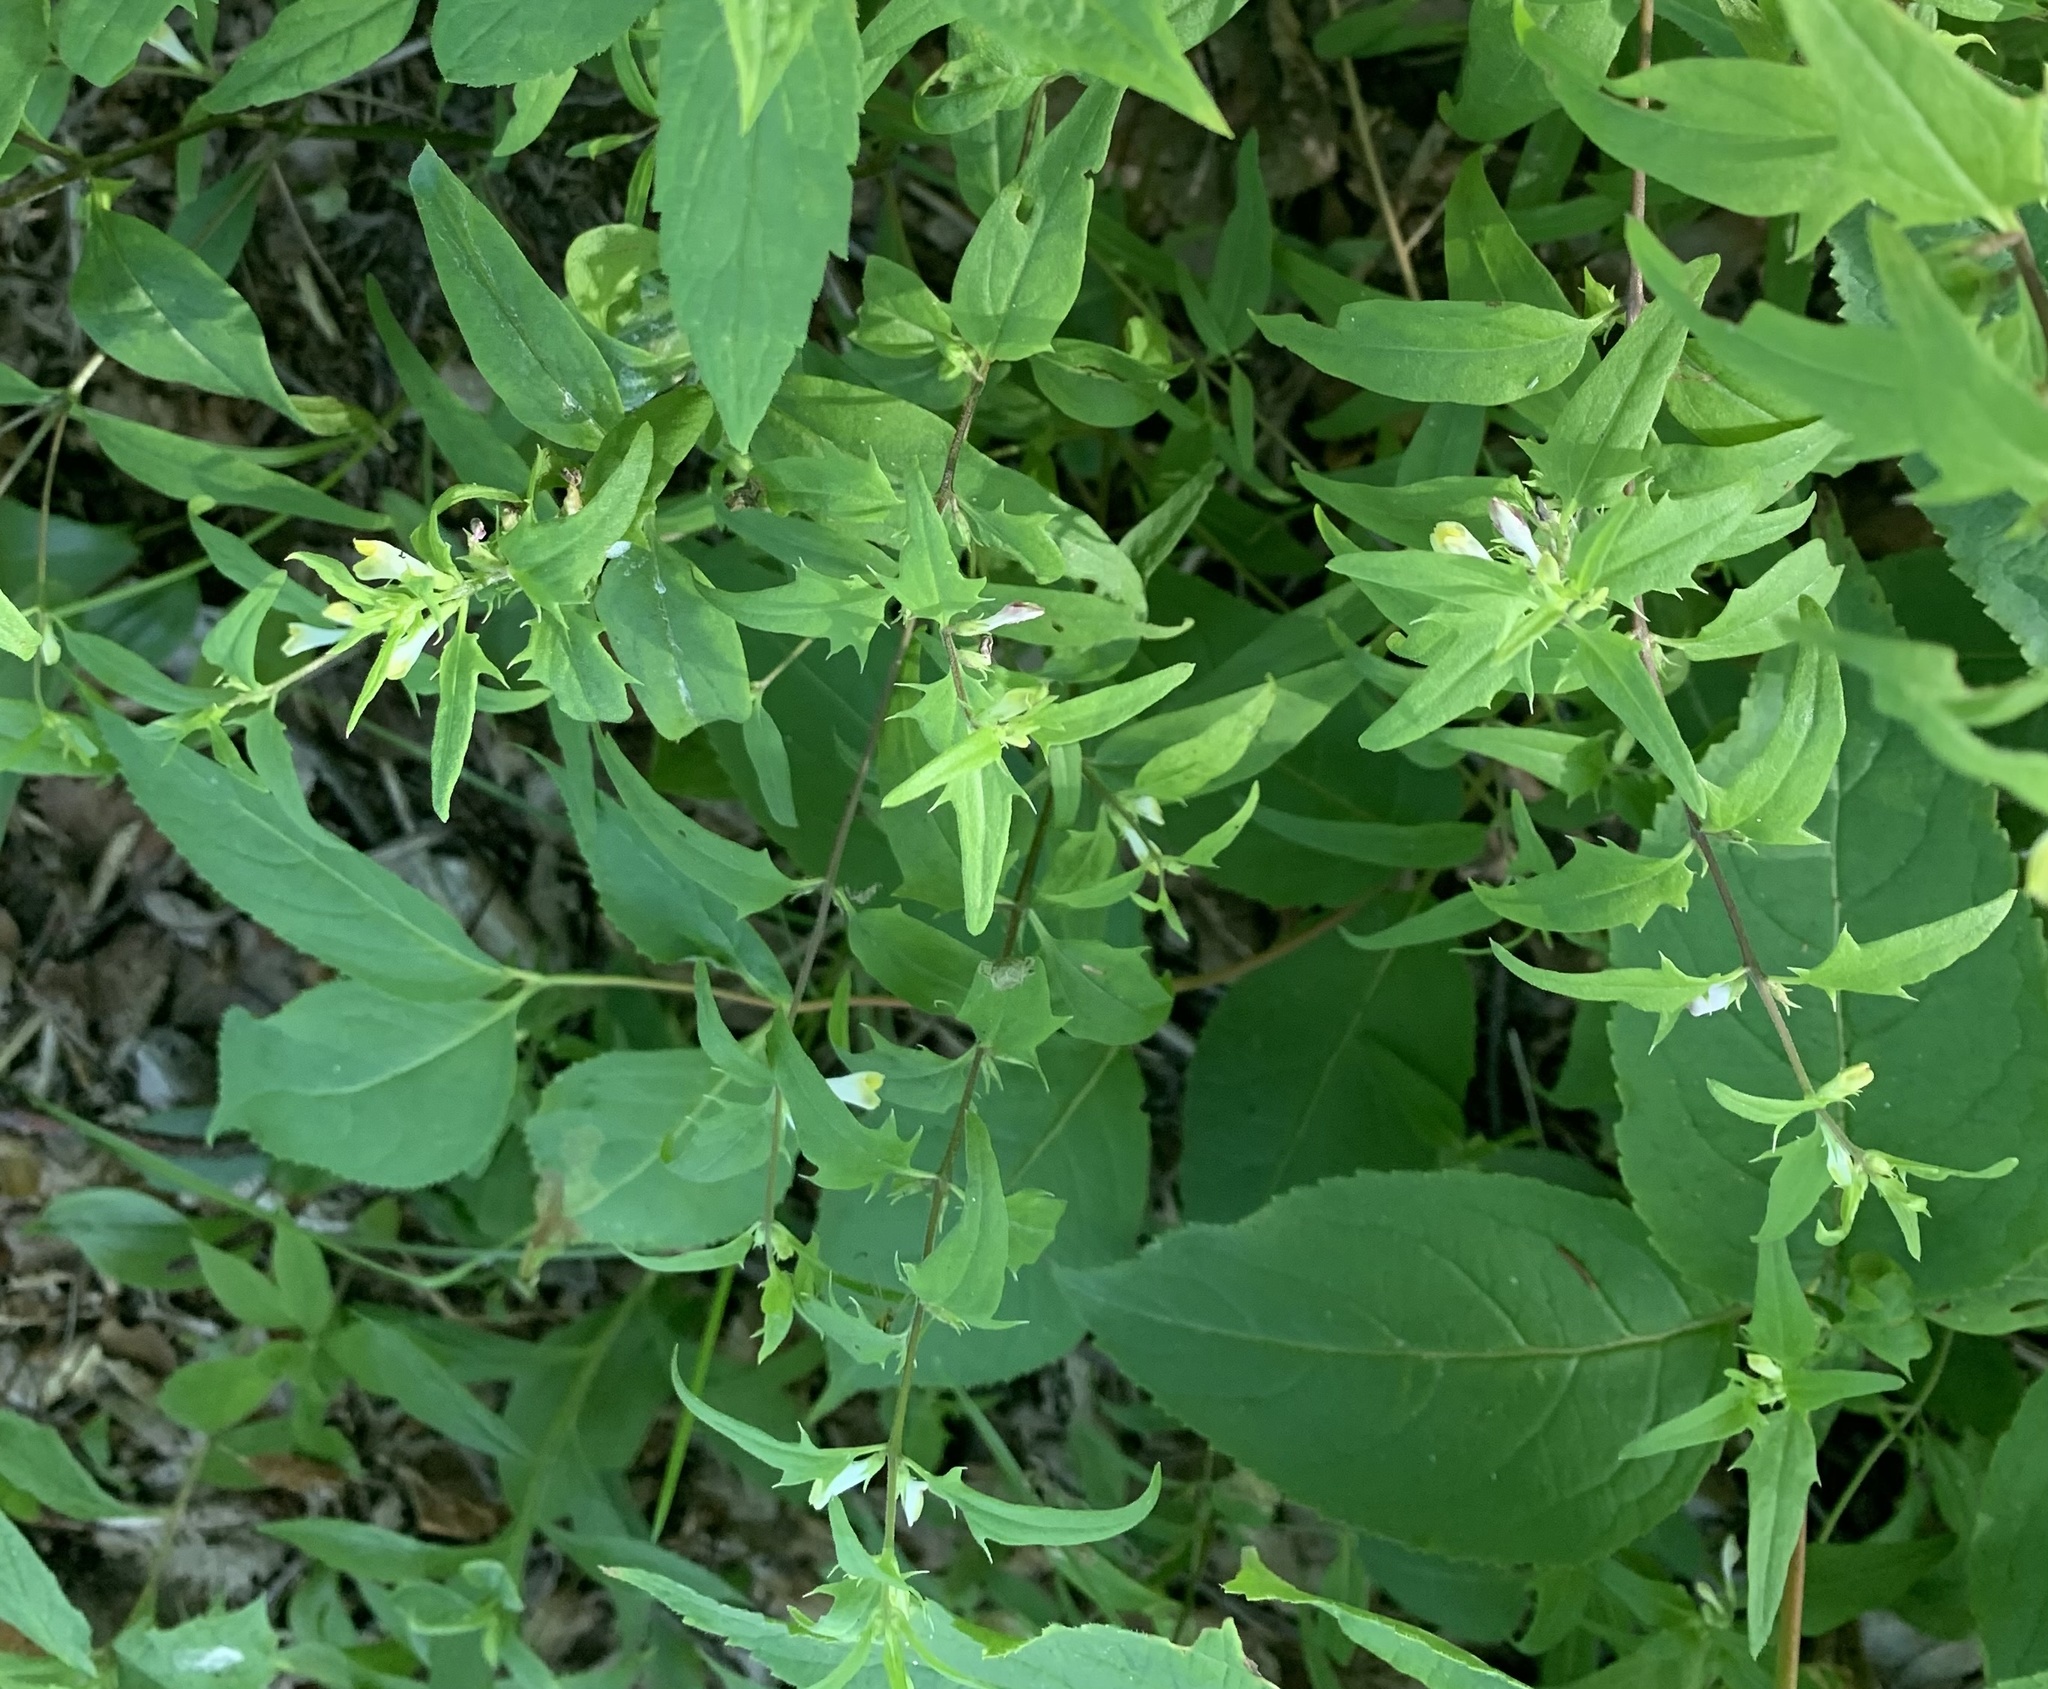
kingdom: Plantae
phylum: Tracheophyta
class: Magnoliopsida
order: Lamiales
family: Orobanchaceae
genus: Melampyrum
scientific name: Melampyrum lineare
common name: American cow-wheat
